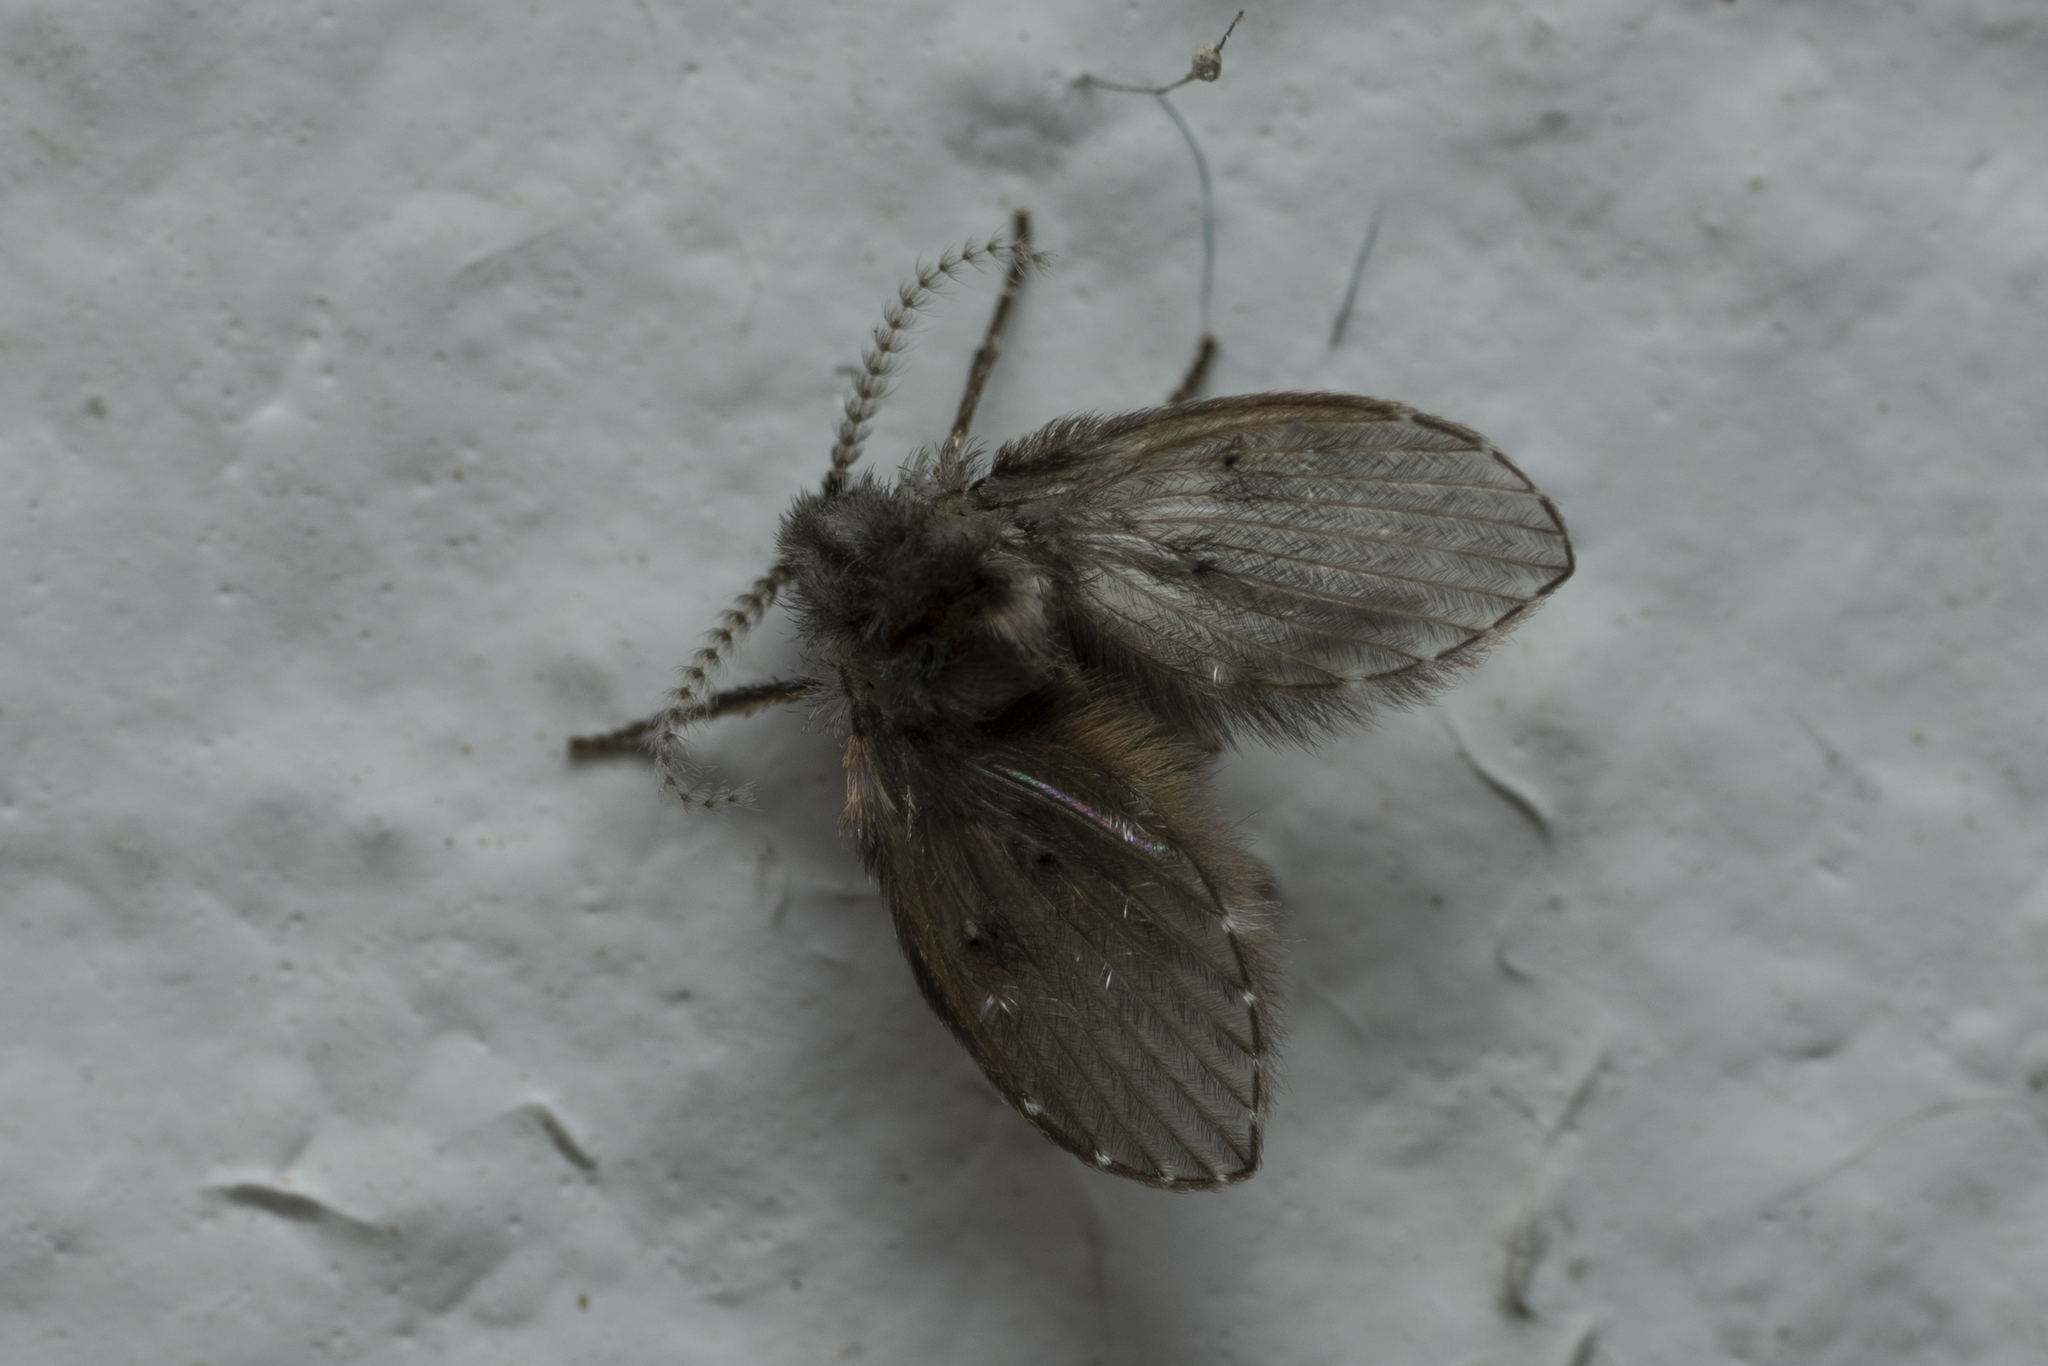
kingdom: Animalia
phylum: Arthropoda
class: Insecta
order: Diptera
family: Psychodidae
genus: Clogmia
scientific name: Clogmia albipunctatus
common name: White-spotted moth fly
